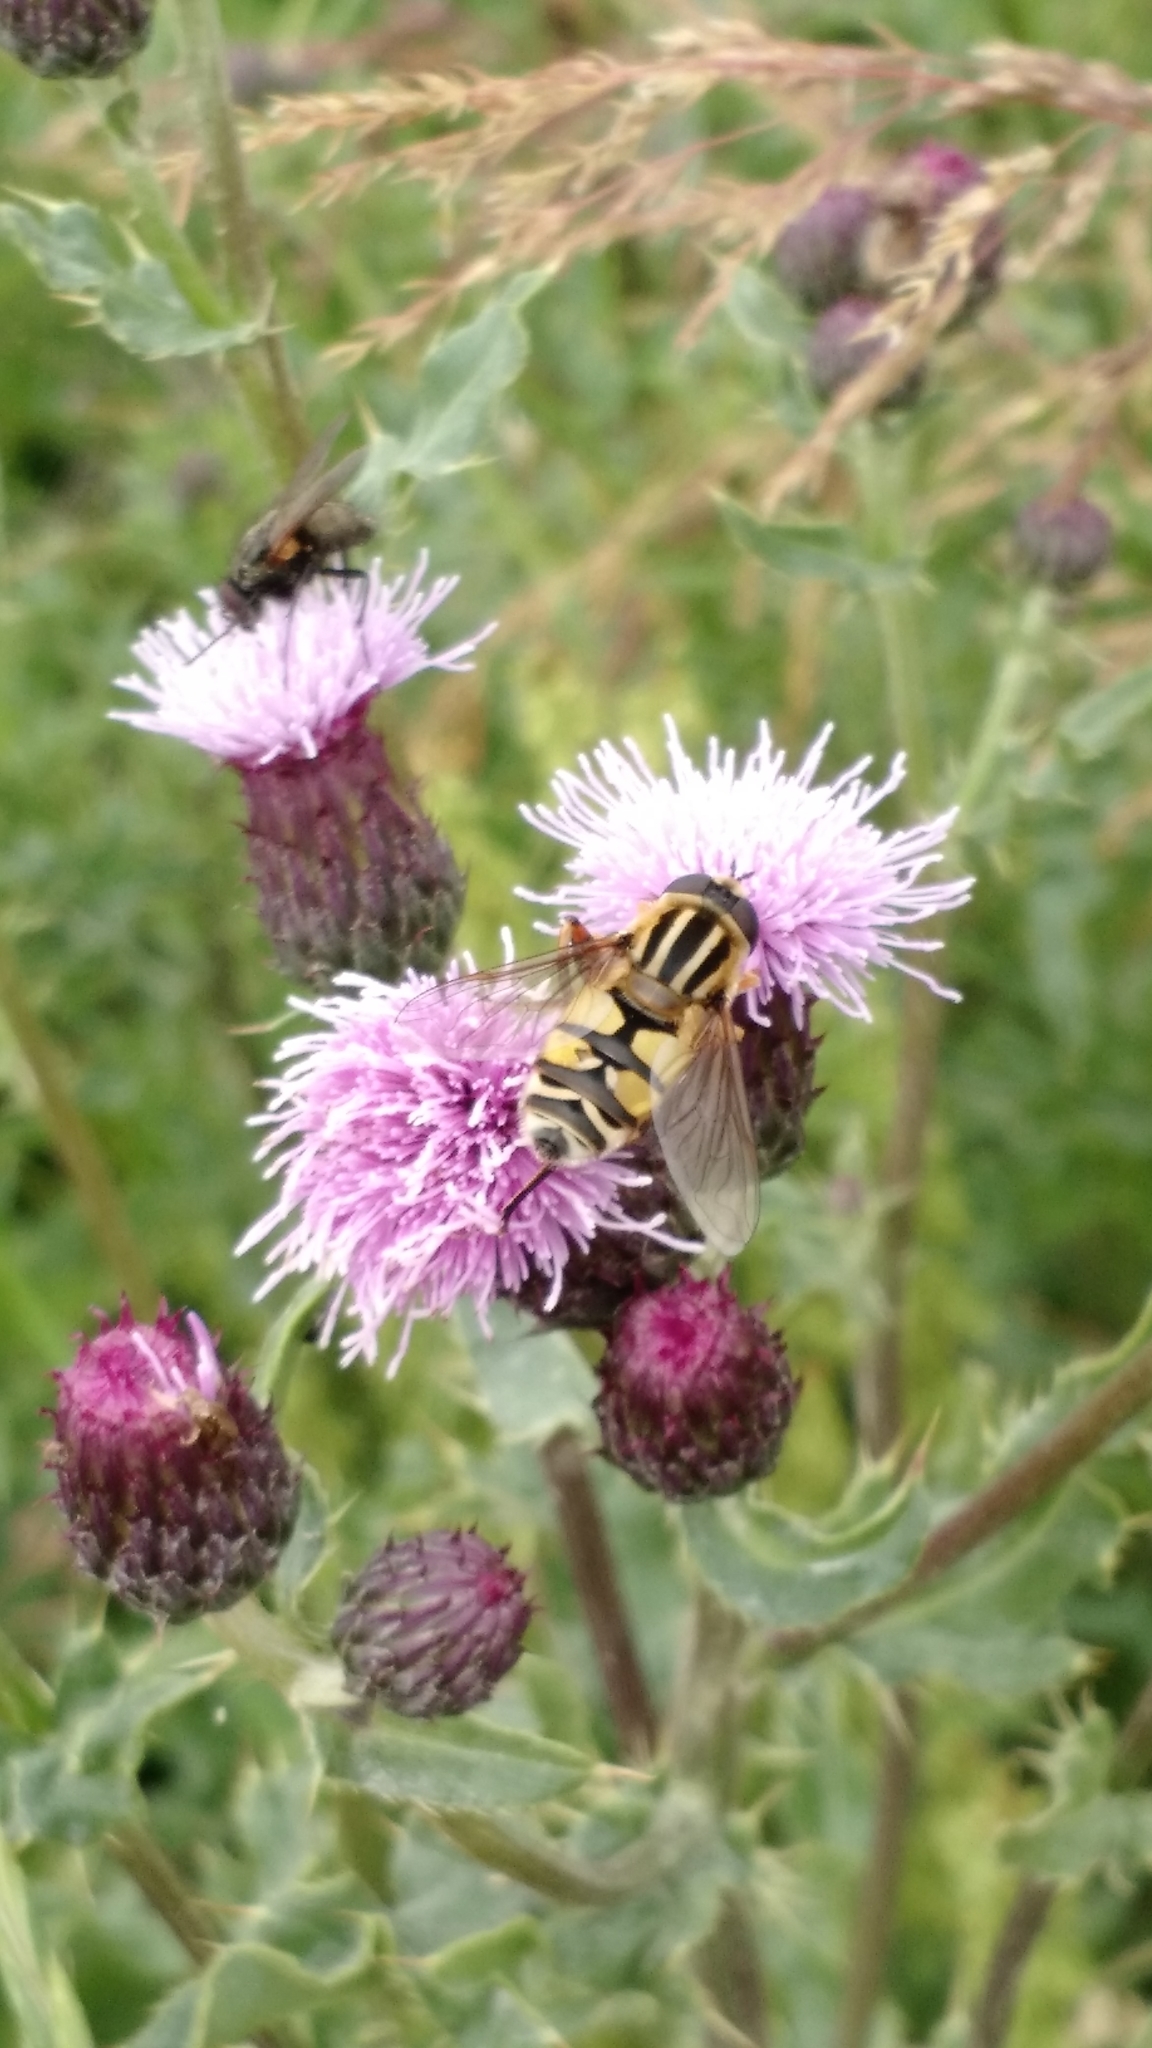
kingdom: Animalia
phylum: Arthropoda
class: Insecta
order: Diptera
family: Syrphidae
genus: Helophilus
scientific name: Helophilus trivittatus
